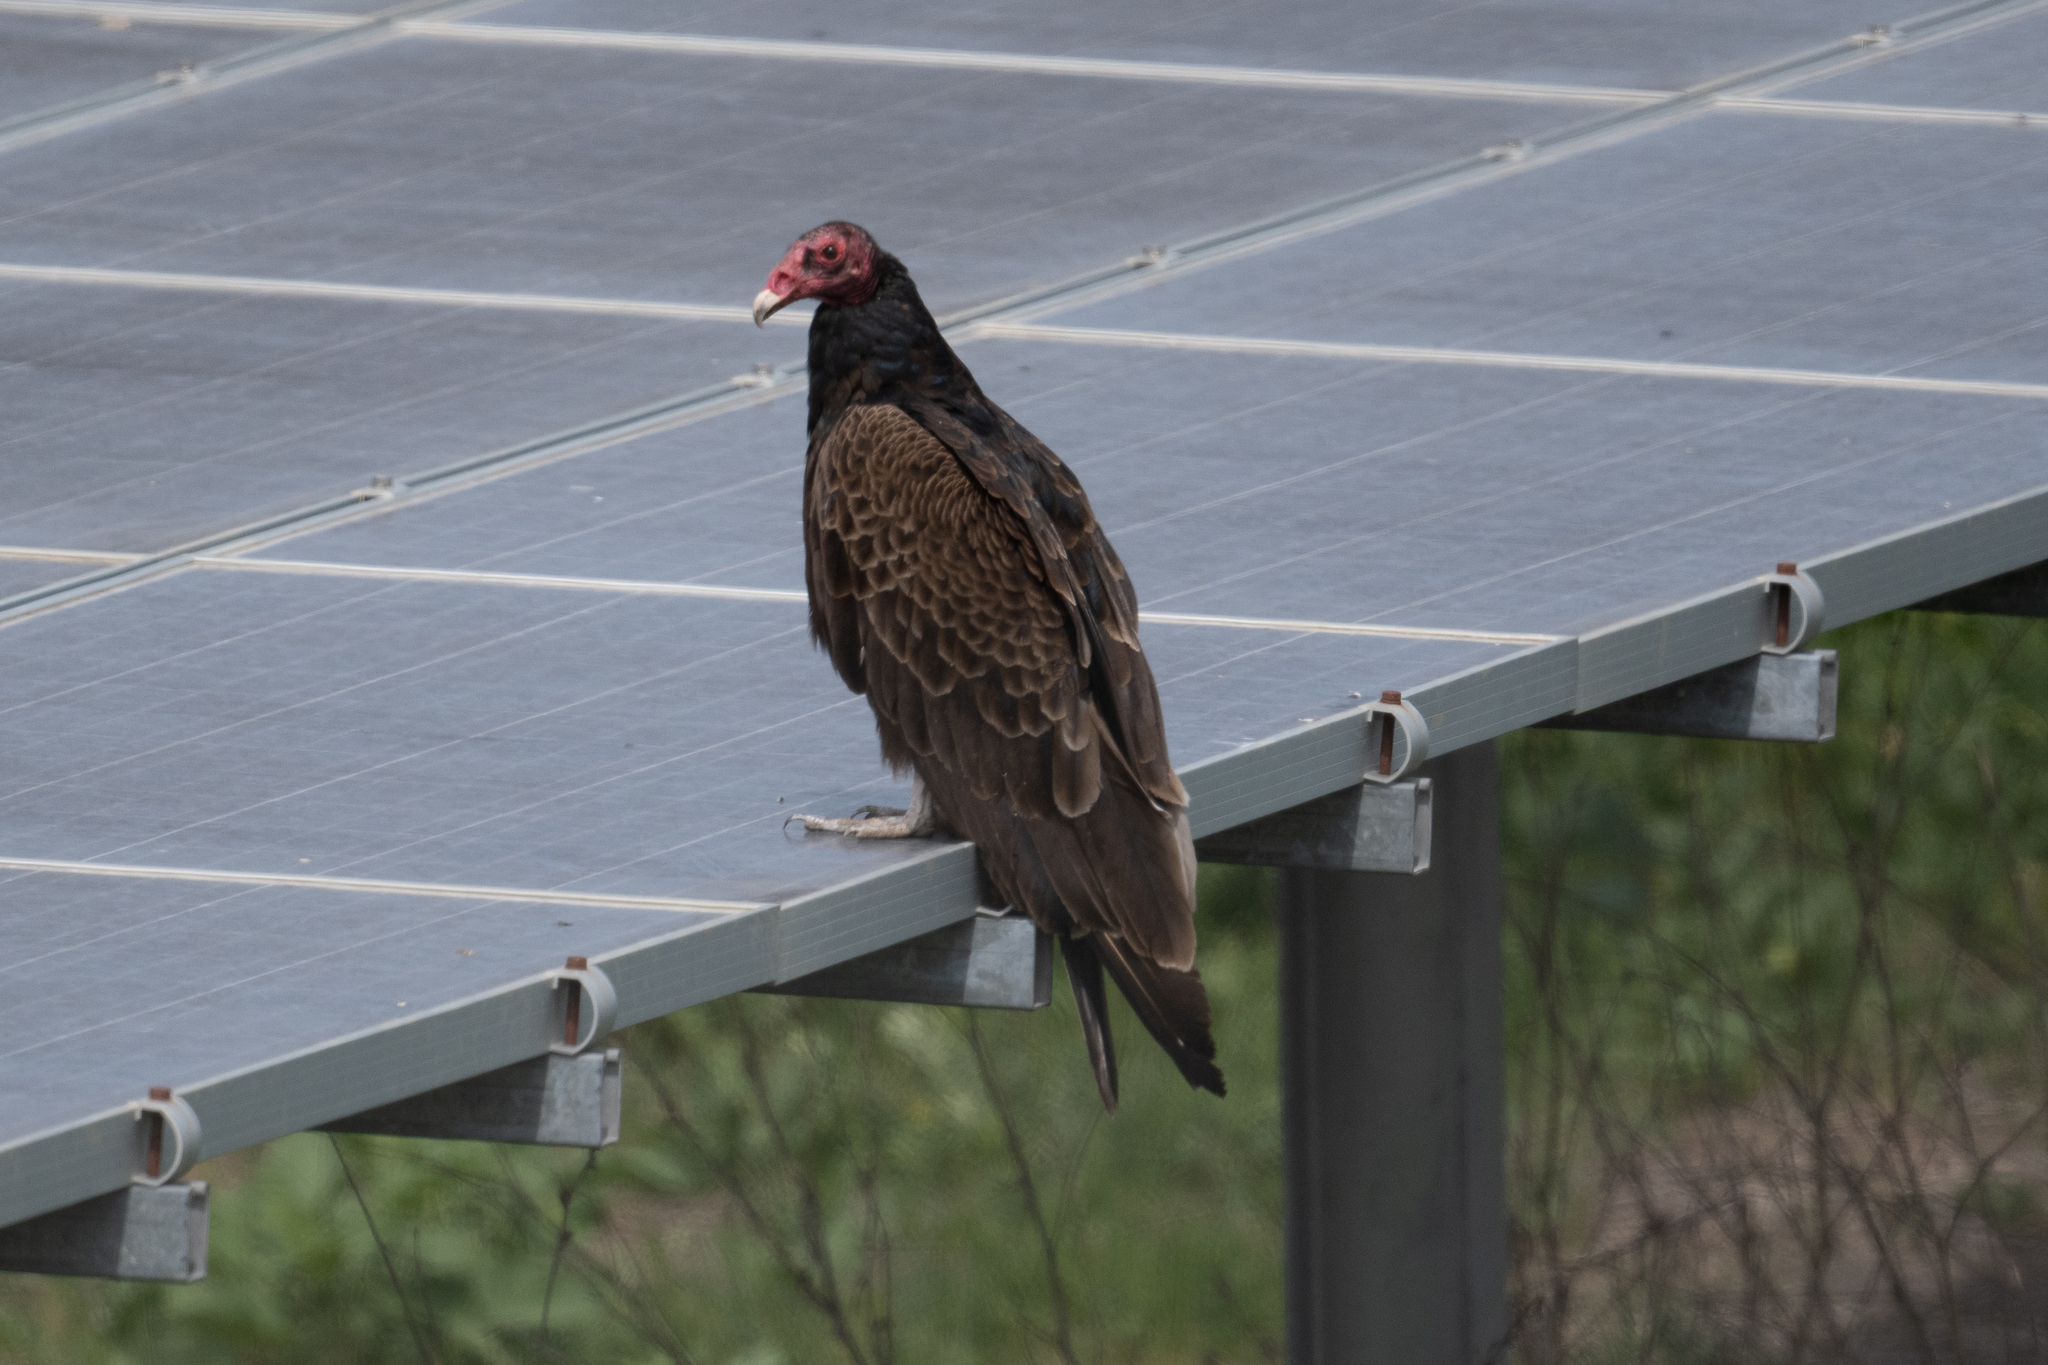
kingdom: Animalia
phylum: Chordata
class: Aves
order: Accipitriformes
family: Cathartidae
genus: Cathartes
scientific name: Cathartes aura
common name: Turkey vulture
